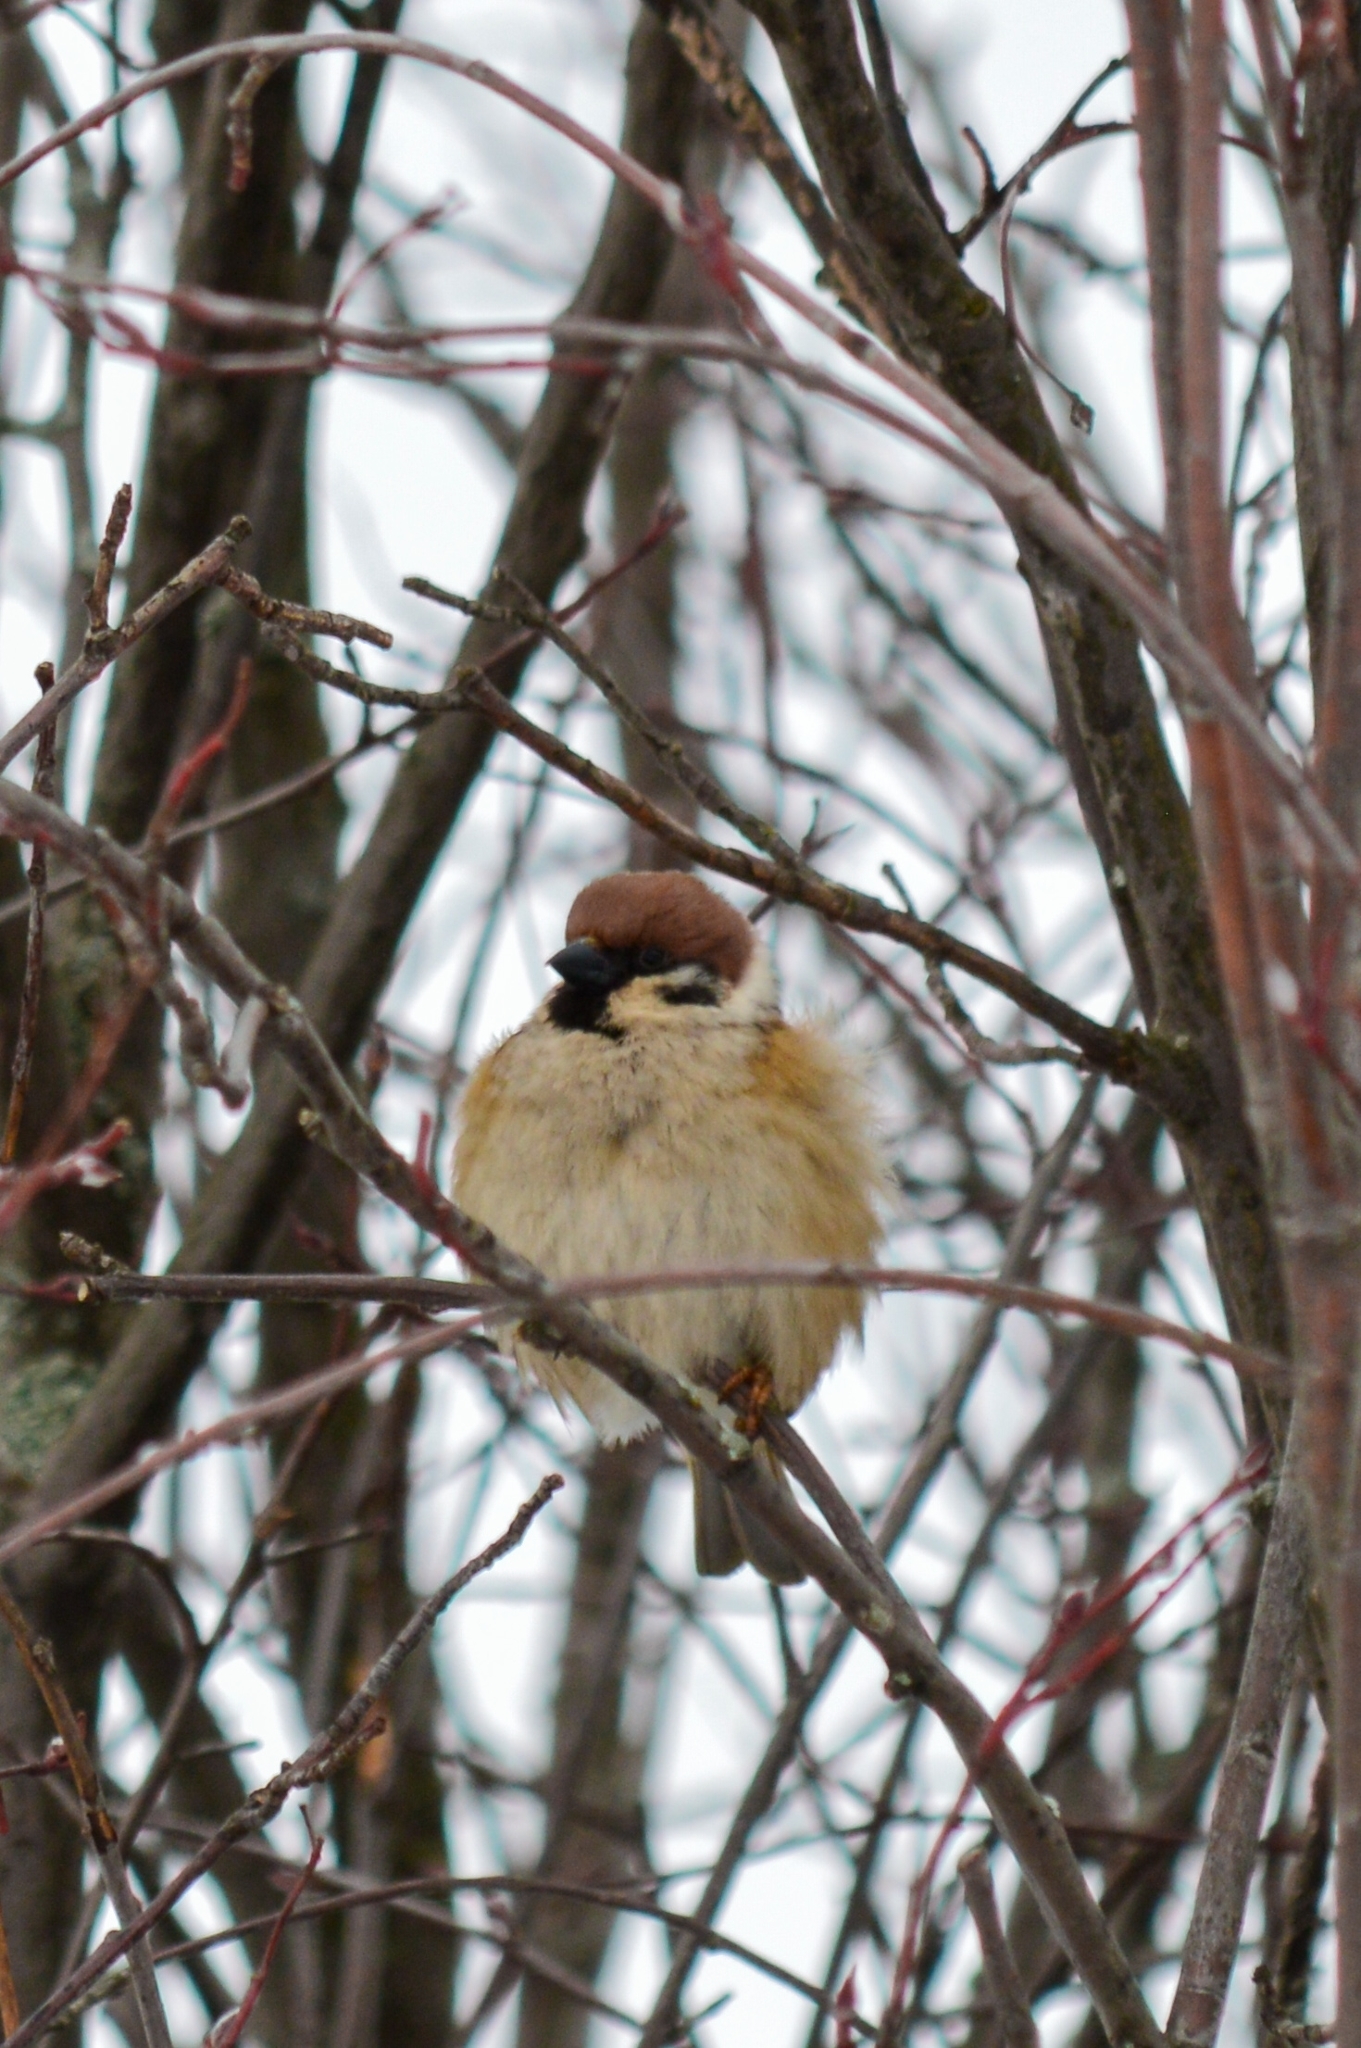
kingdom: Animalia
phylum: Chordata
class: Aves
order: Passeriformes
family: Passeridae
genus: Passer
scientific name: Passer montanus
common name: Eurasian tree sparrow
